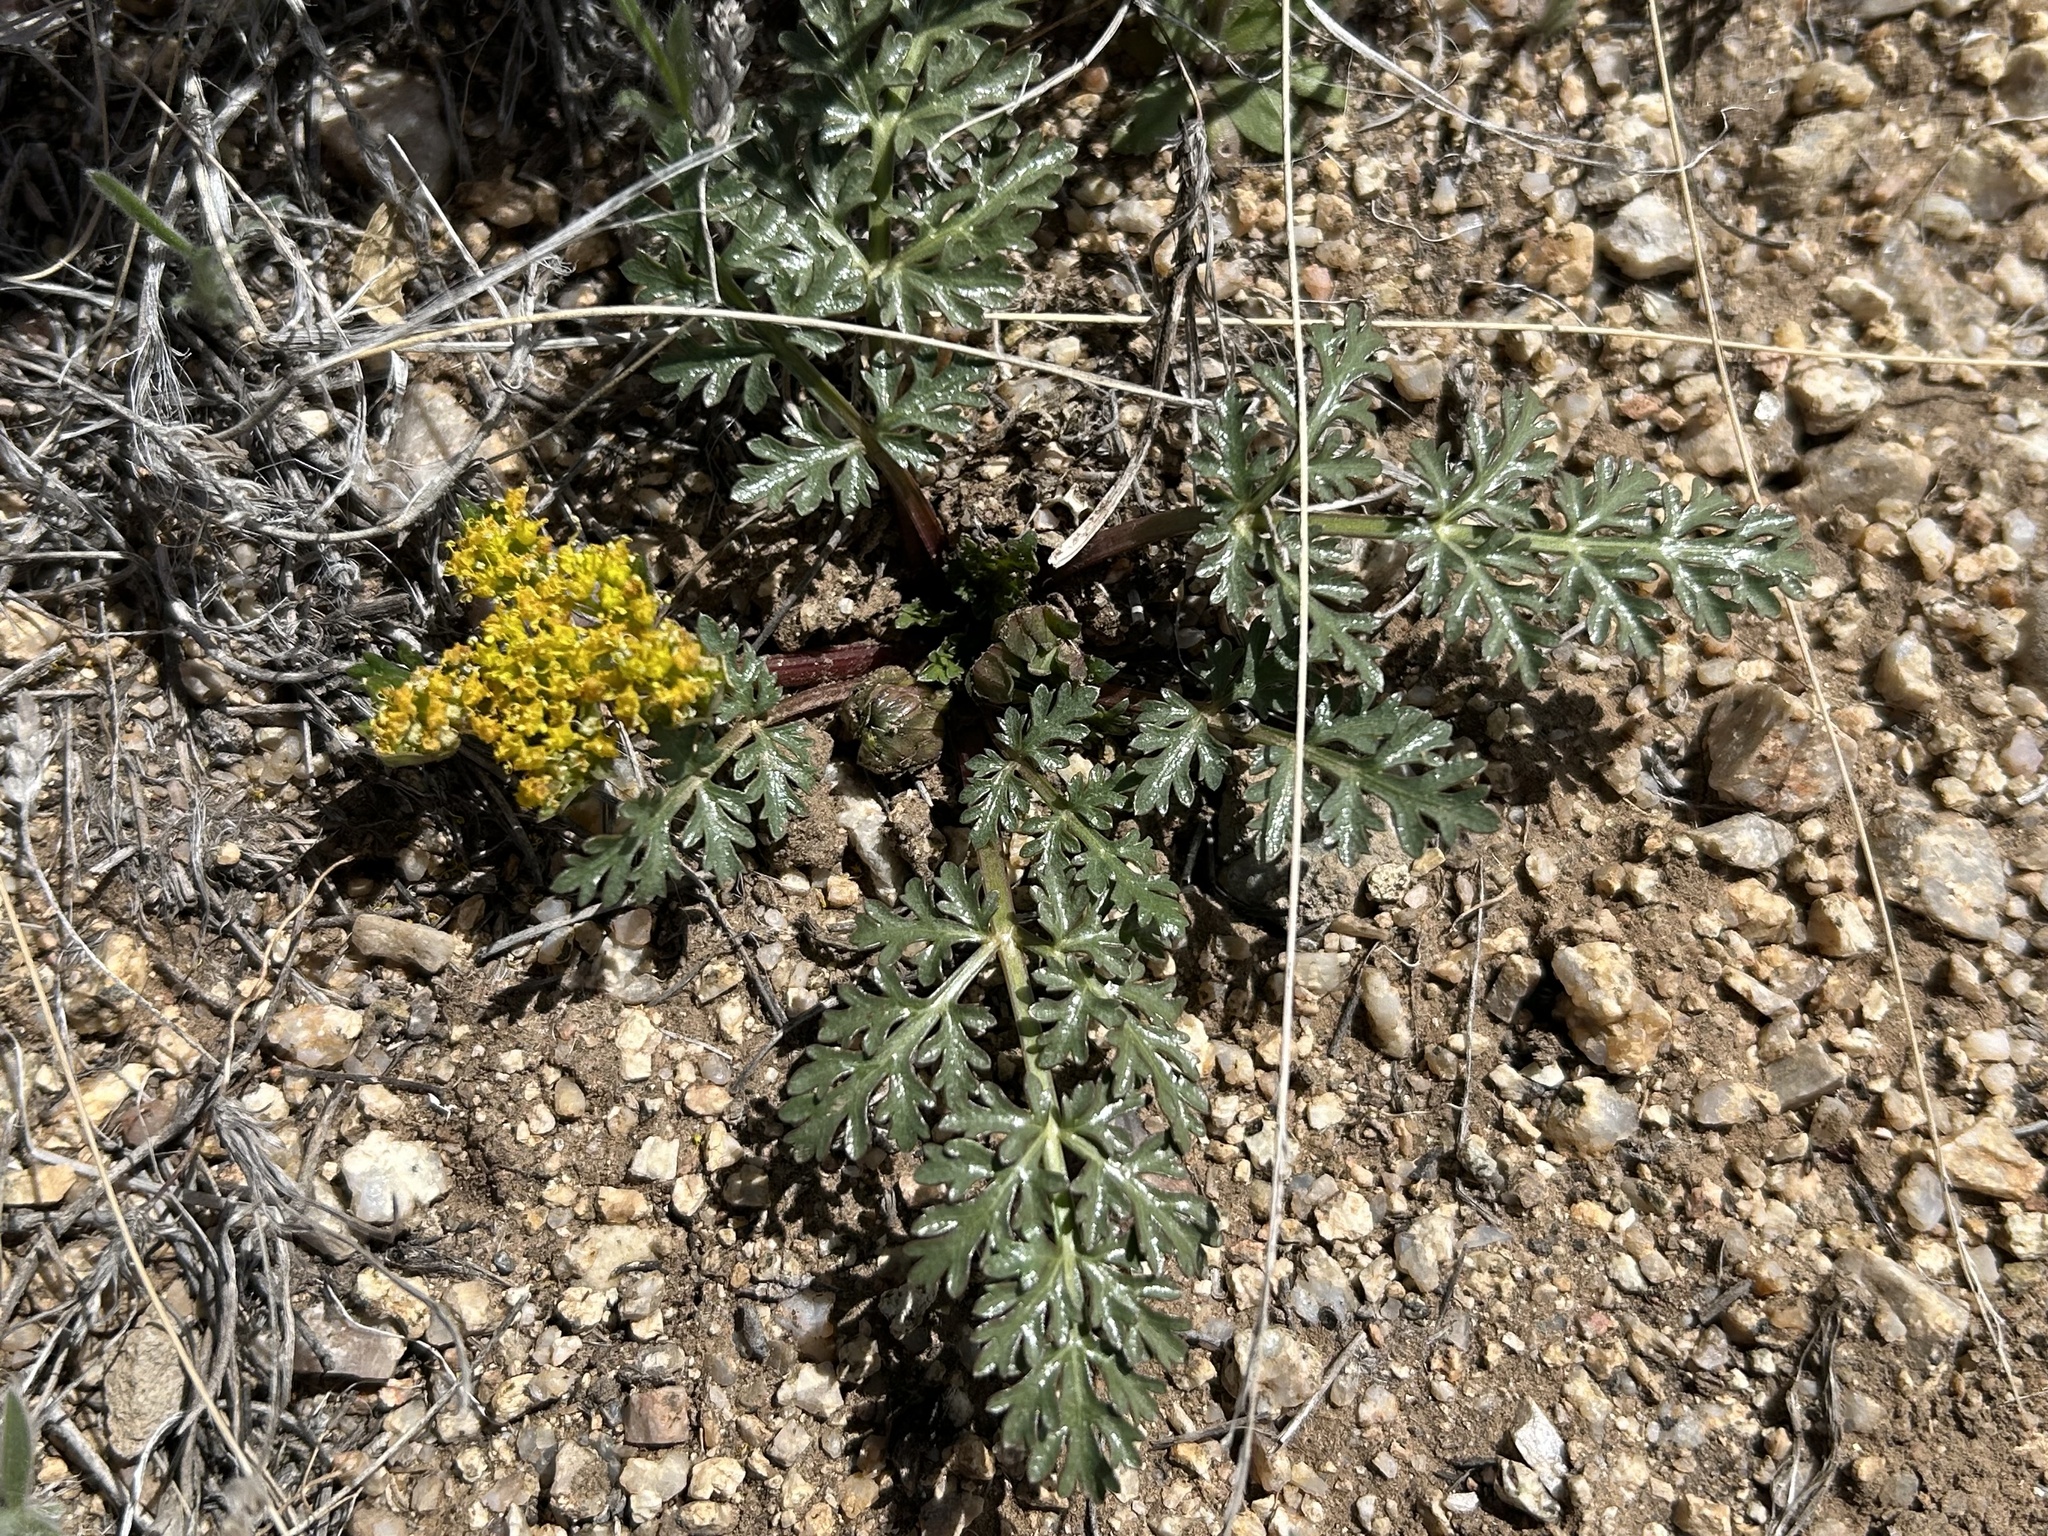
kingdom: Plantae
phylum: Tracheophyta
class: Magnoliopsida
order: Apiales
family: Apiaceae
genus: Cymopterus
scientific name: Cymopterus glomeratus
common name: Plains spring parsley
